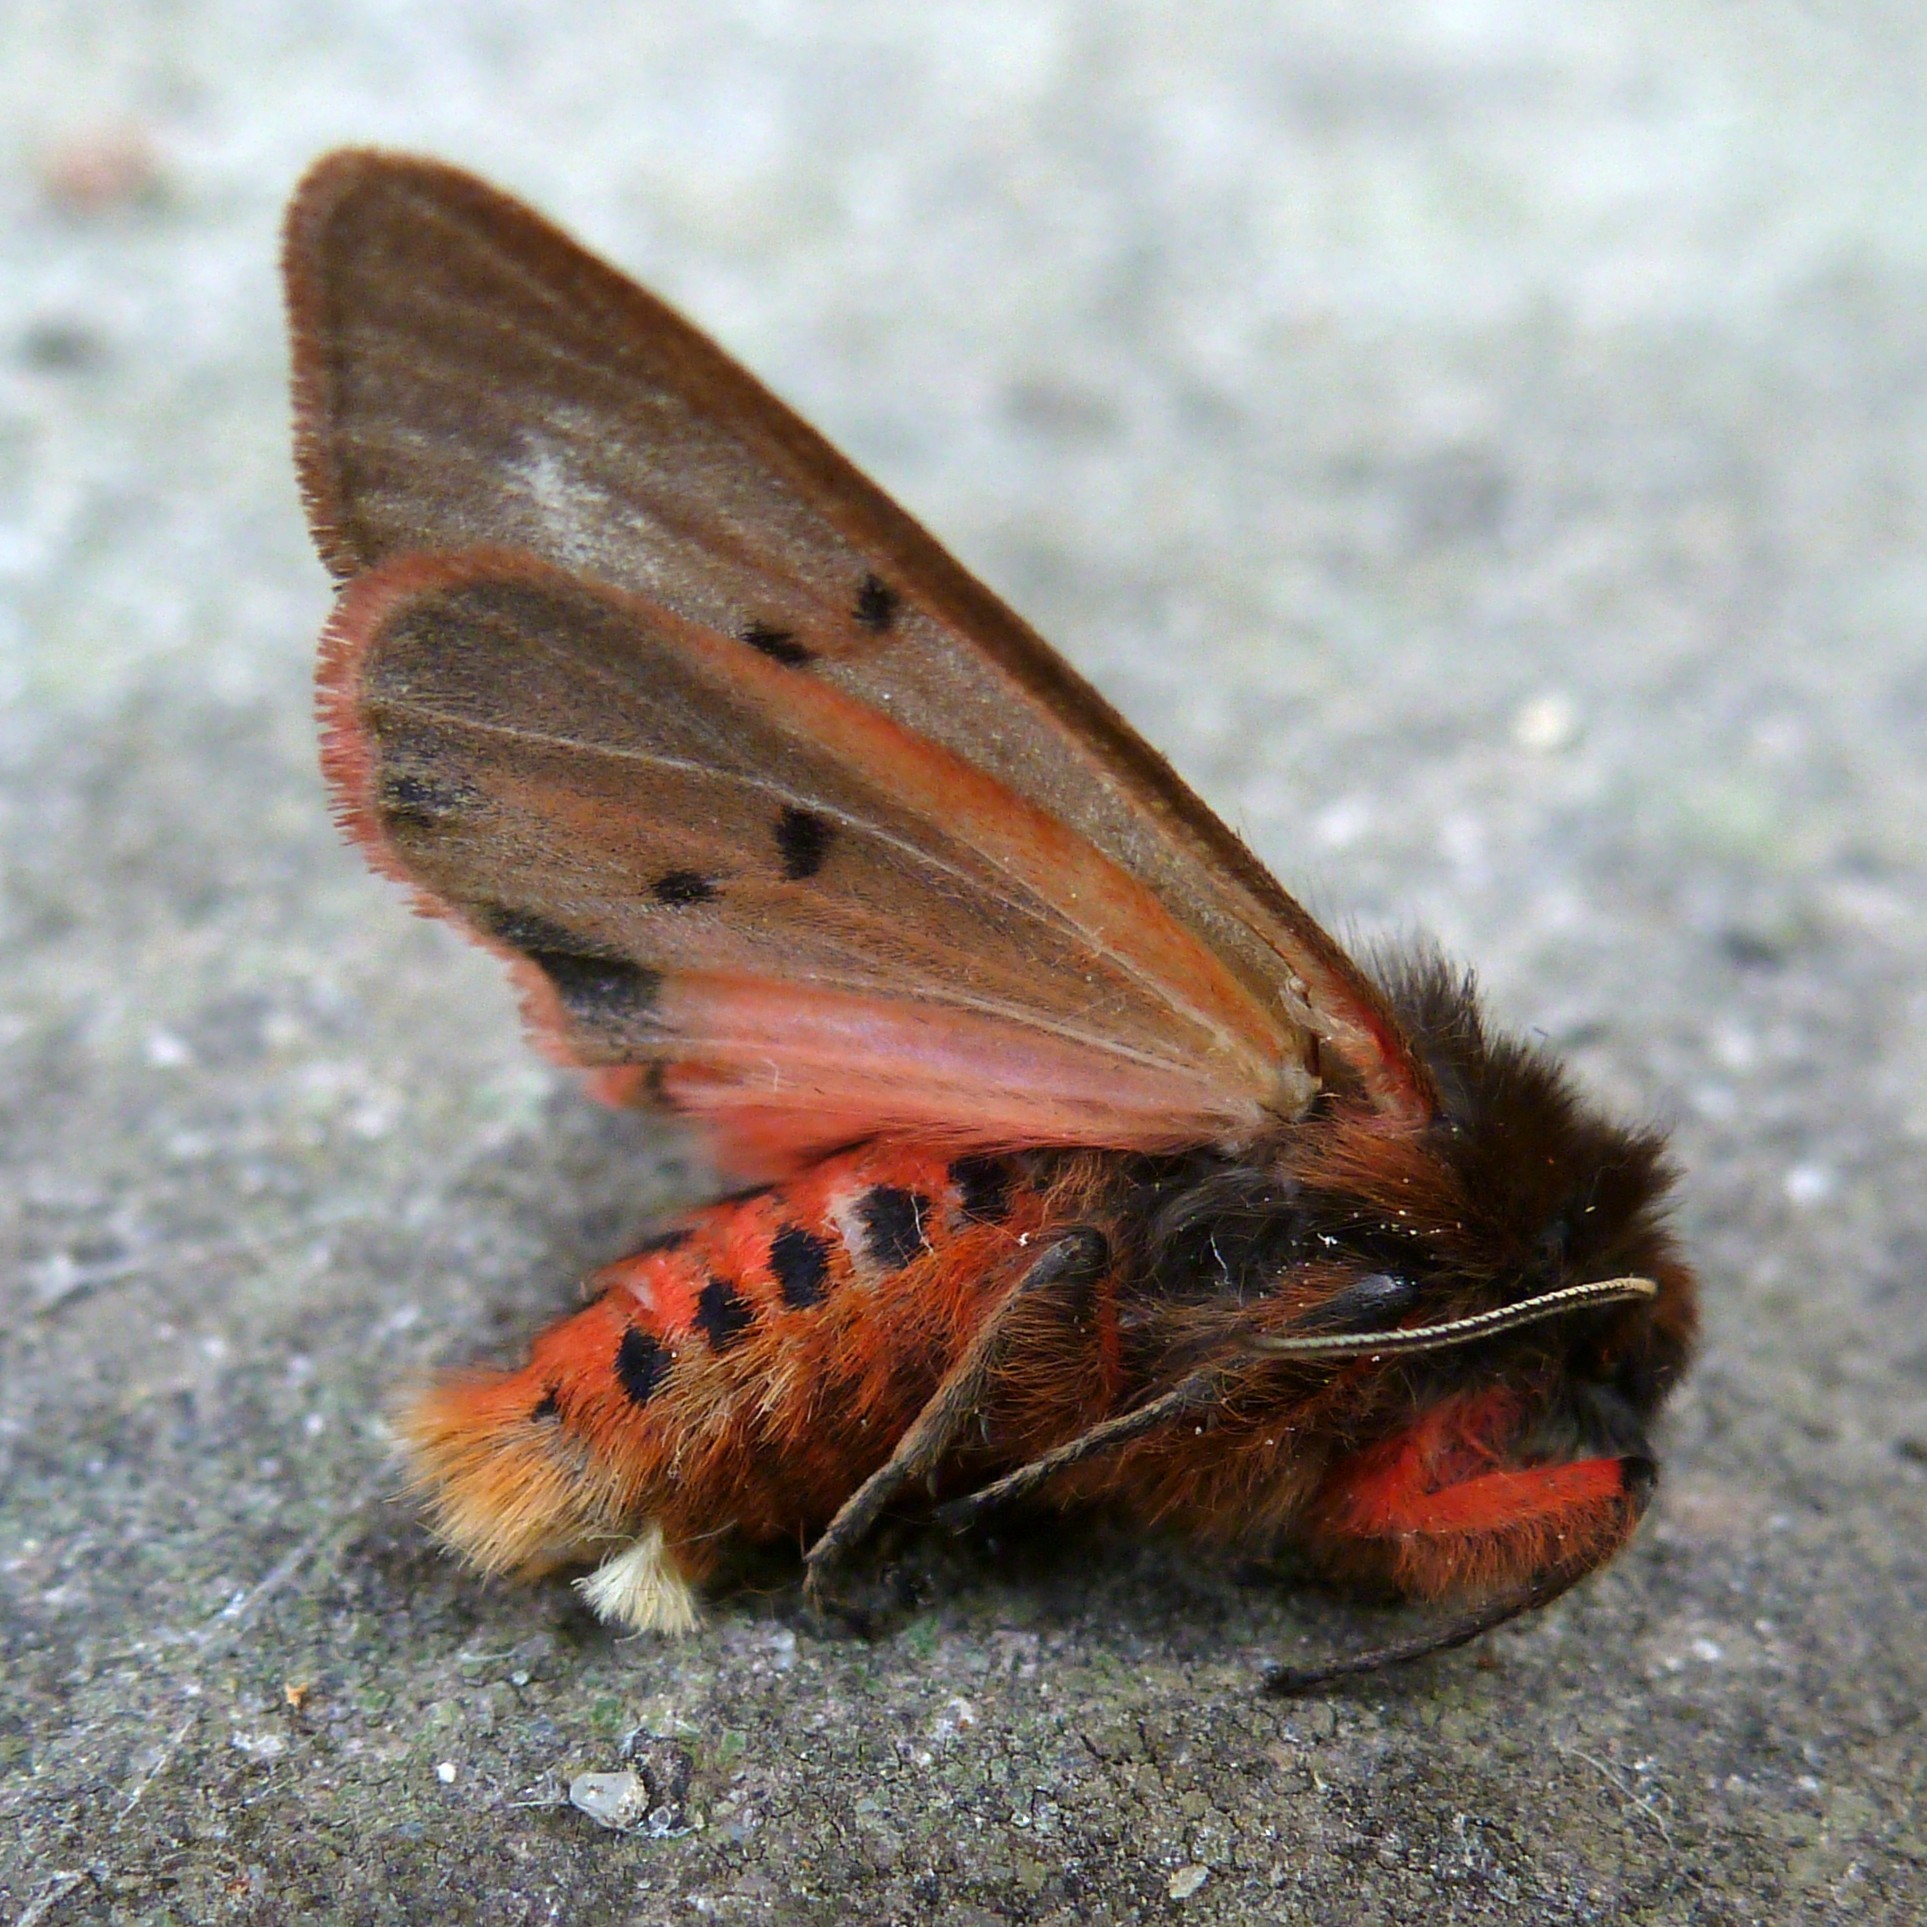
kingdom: Animalia
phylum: Arthropoda
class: Insecta
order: Lepidoptera
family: Erebidae
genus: Phragmatobia
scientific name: Phragmatobia fuliginosa
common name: Ruby tiger
